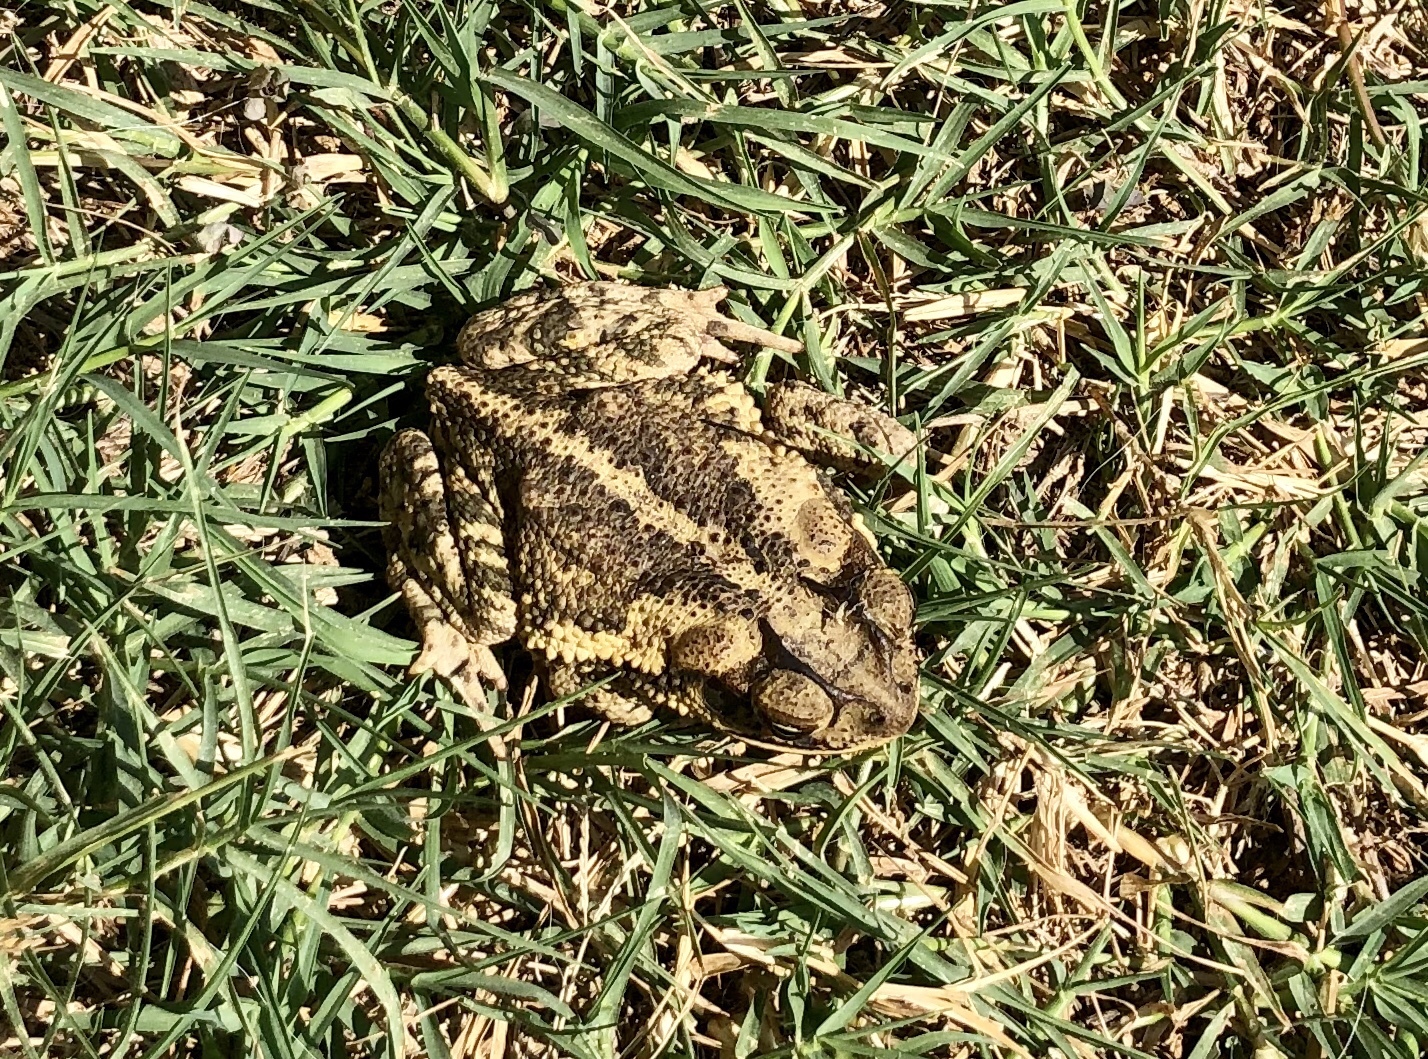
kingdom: Animalia
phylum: Chordata
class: Amphibia
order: Anura
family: Bufonidae
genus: Incilius
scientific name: Incilius nebulifer
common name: Gulf coast toad
